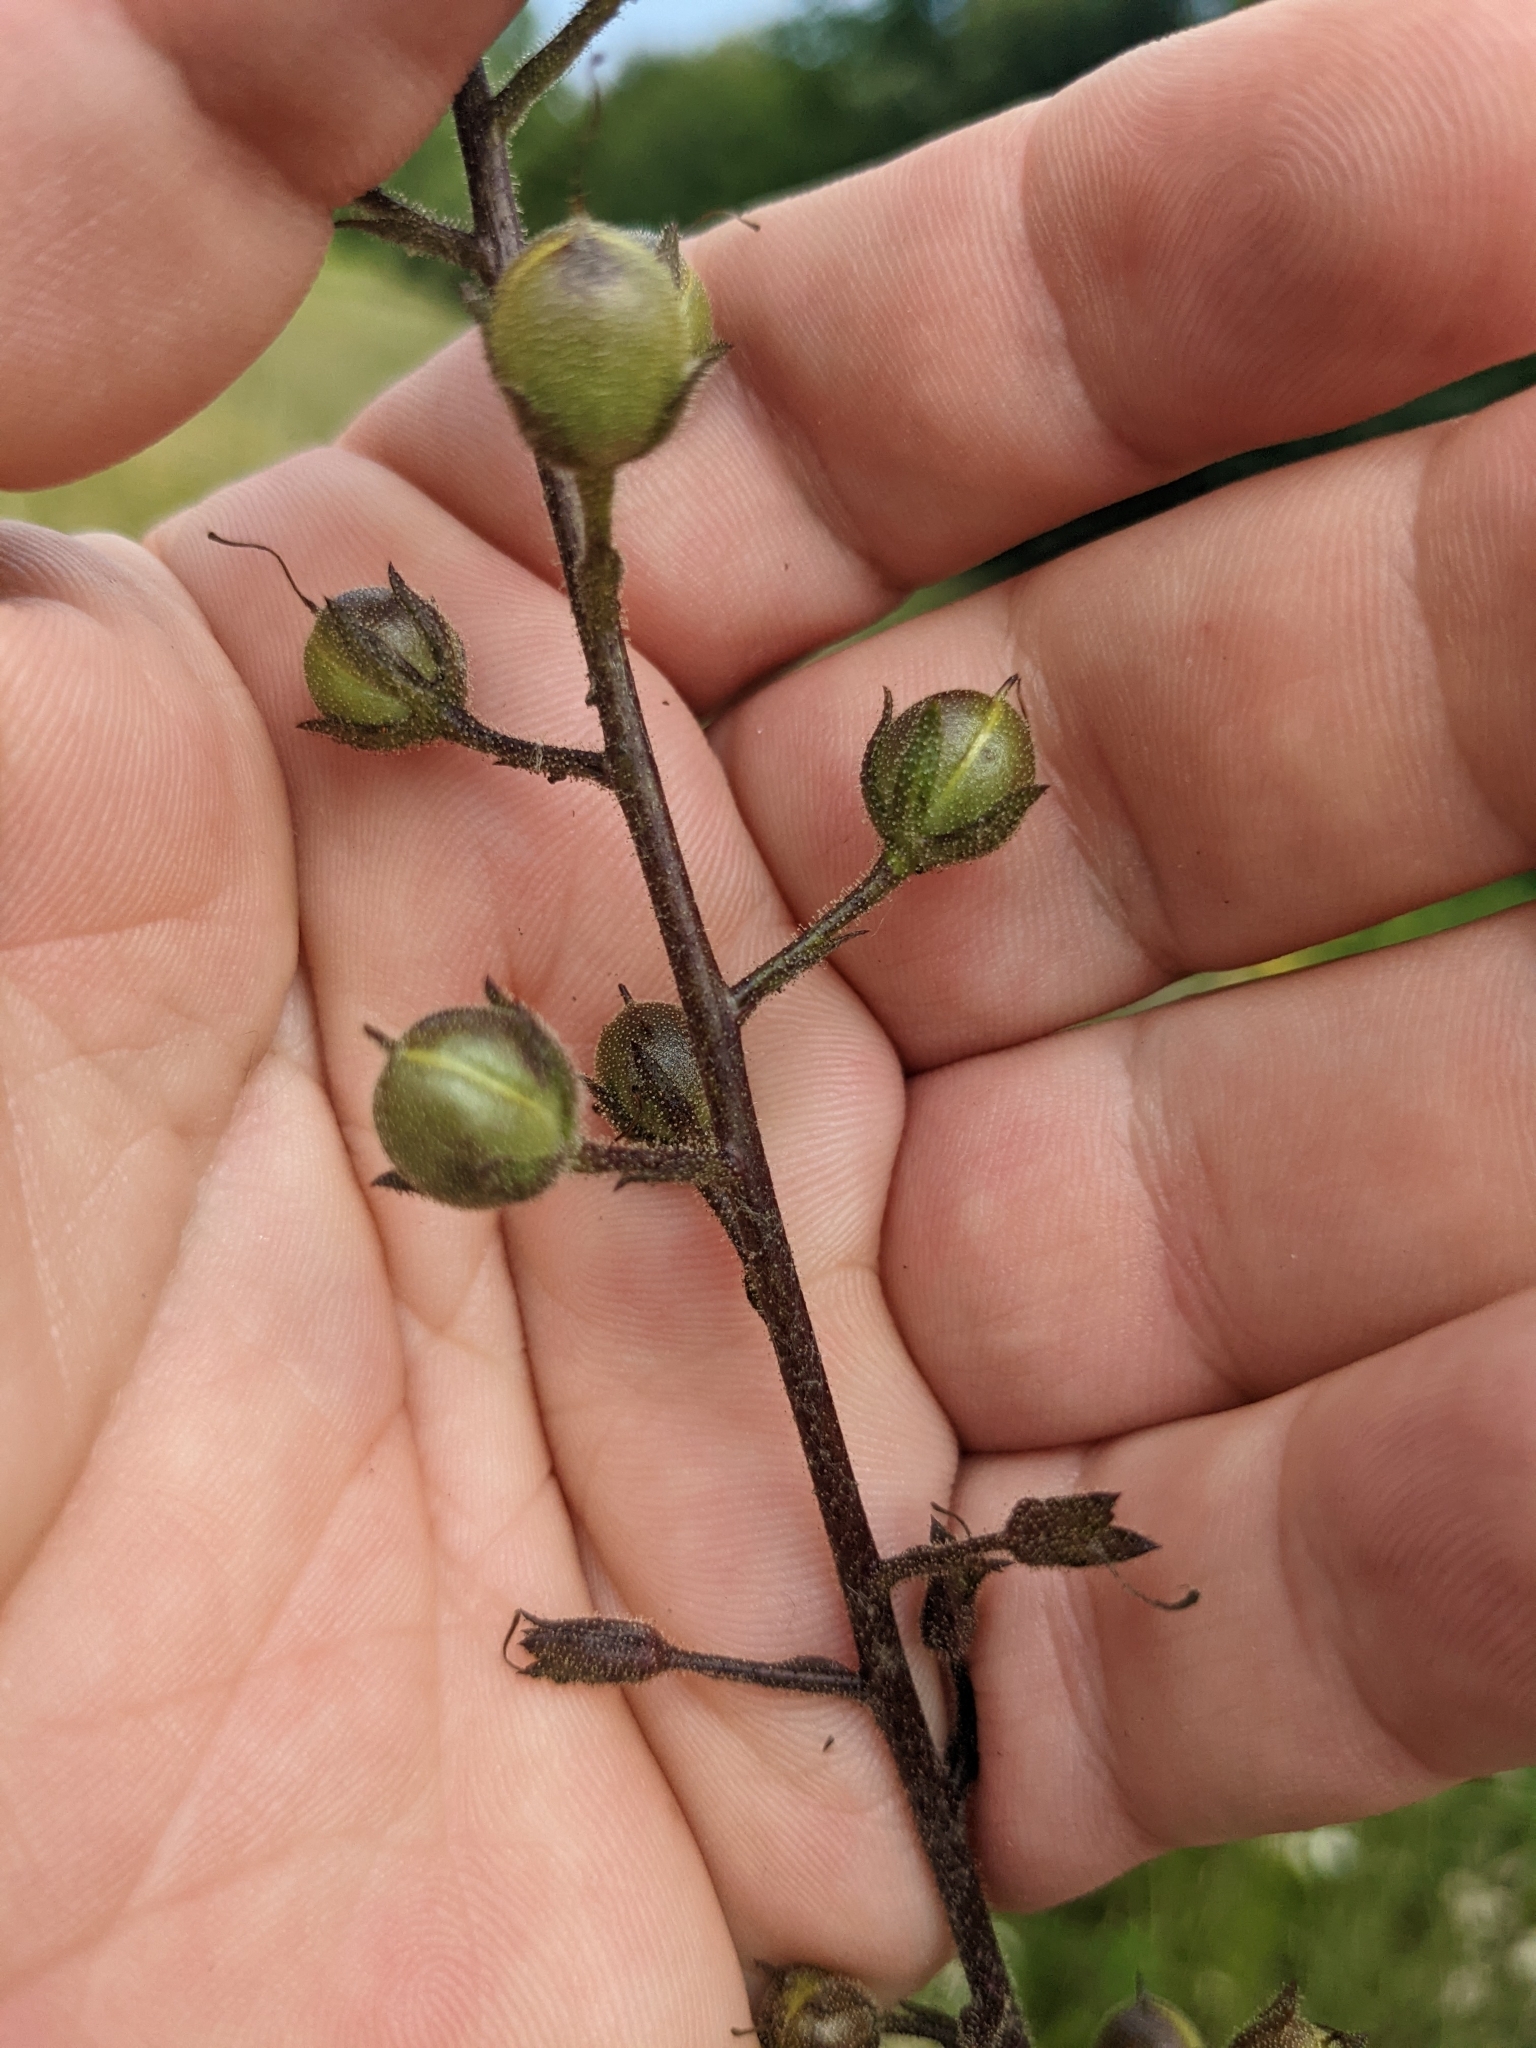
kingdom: Plantae
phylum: Tracheophyta
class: Magnoliopsida
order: Lamiales
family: Scrophulariaceae
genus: Verbascum
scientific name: Verbascum blattaria
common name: Moth mullein
